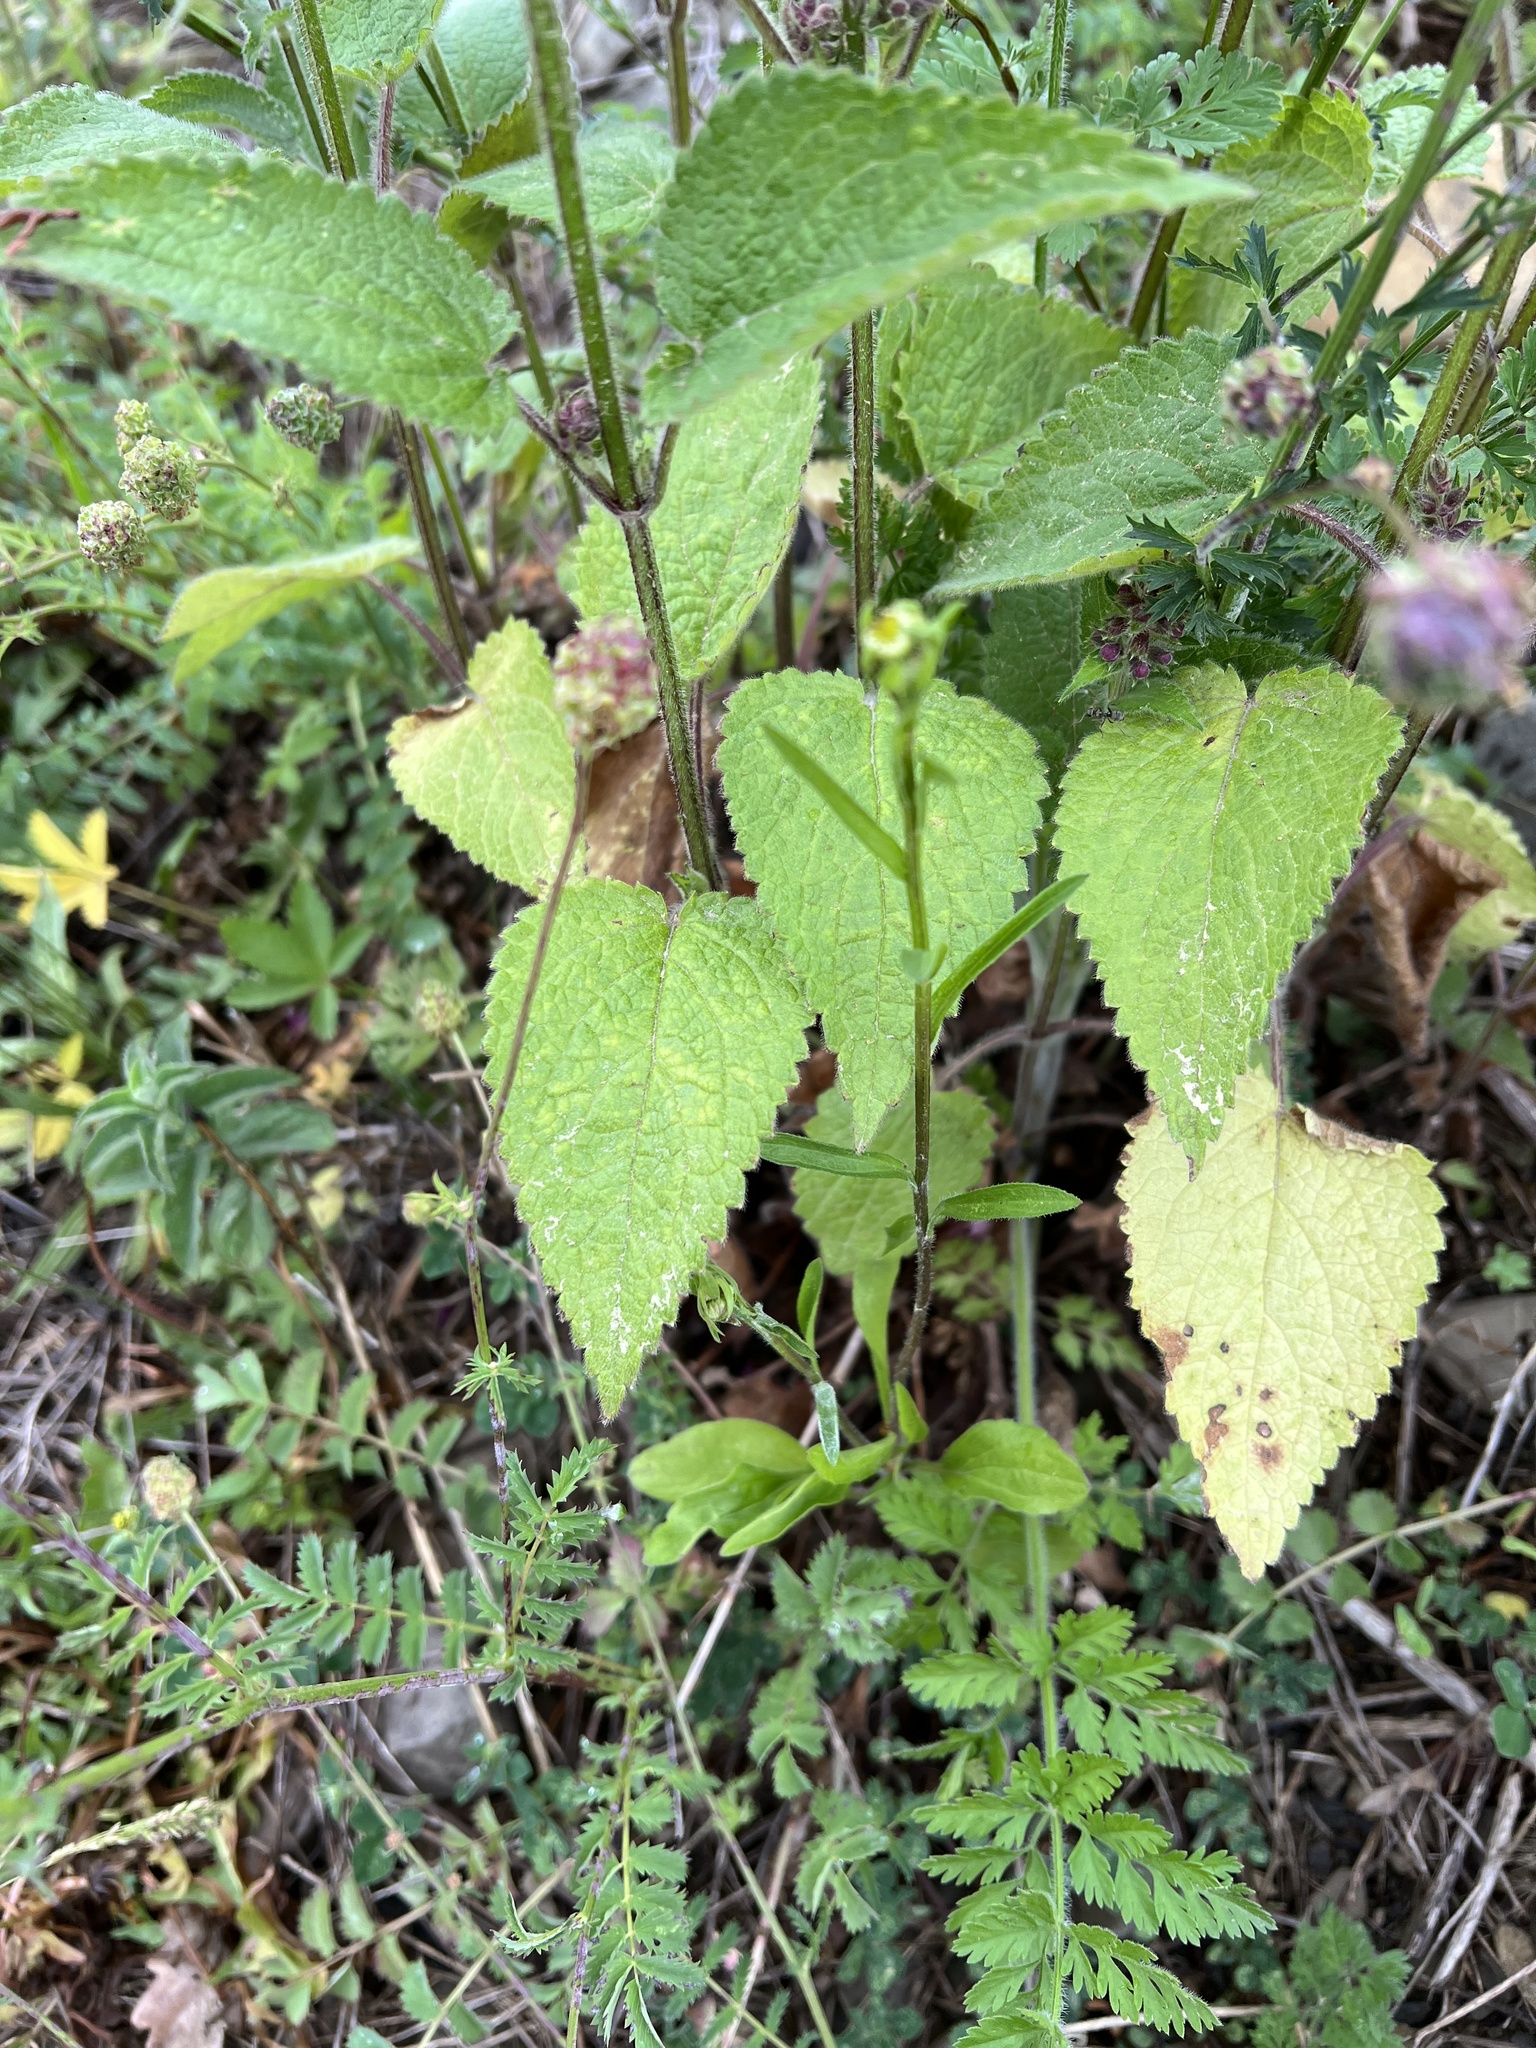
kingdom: Plantae
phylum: Tracheophyta
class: Magnoliopsida
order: Lamiales
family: Lamiaceae
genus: Stachys
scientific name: Stachys sylvatica
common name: Hedge woundwort
